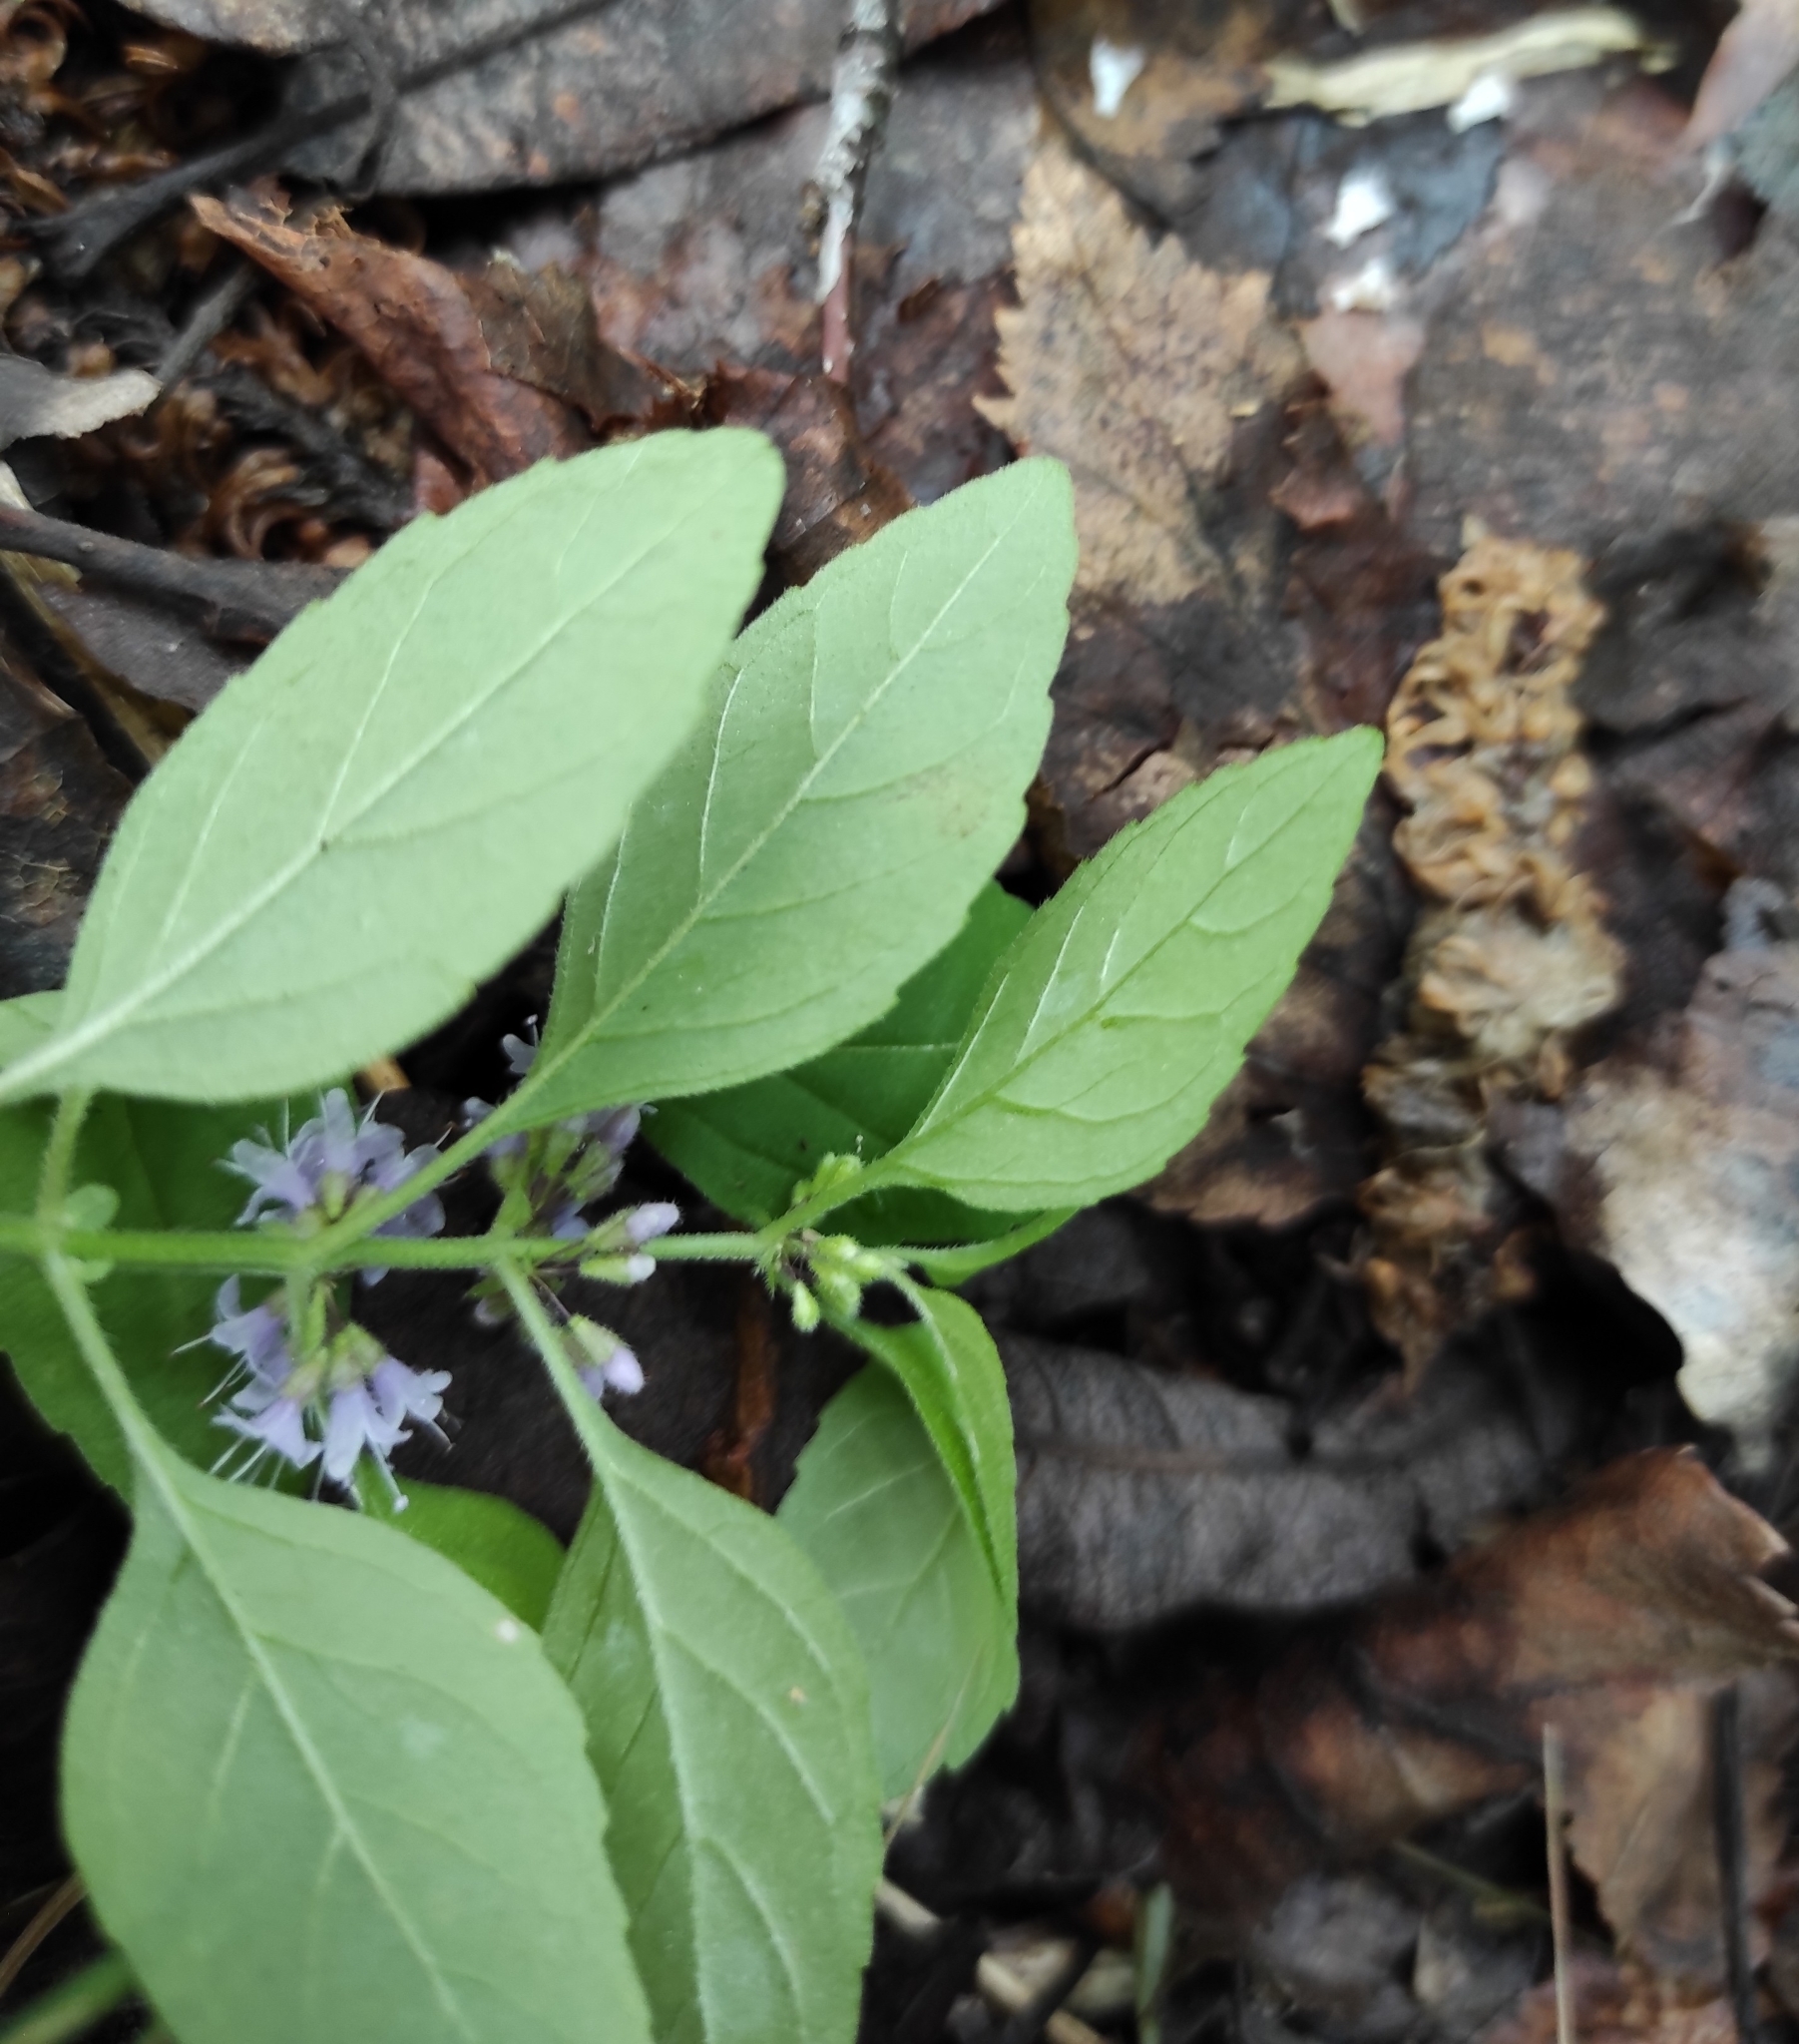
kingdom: Plantae
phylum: Tracheophyta
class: Magnoliopsida
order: Lamiales
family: Lamiaceae
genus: Mentha
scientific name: Mentha arvensis
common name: Corn mint
